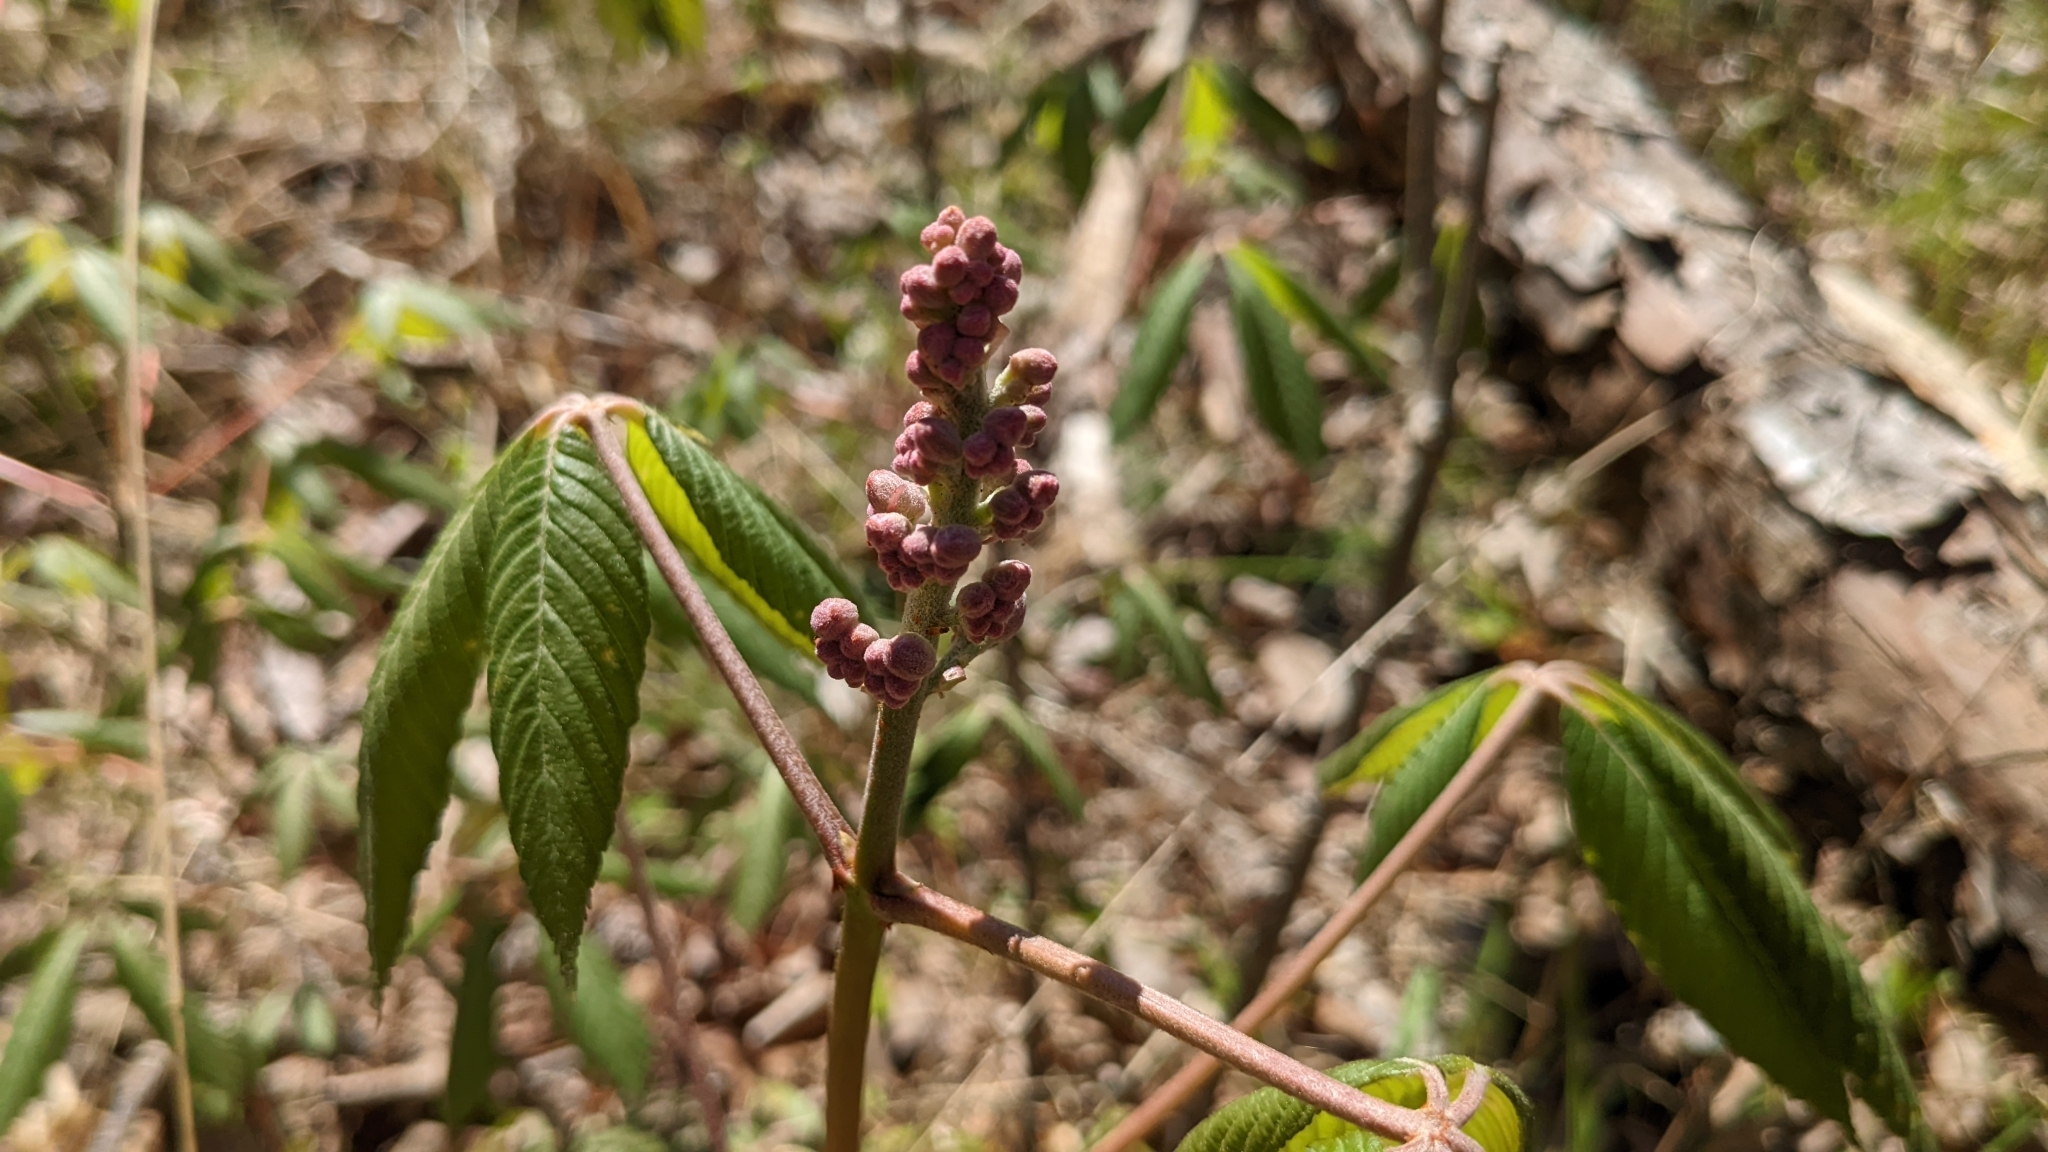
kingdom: Plantae
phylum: Tracheophyta
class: Magnoliopsida
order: Sapindales
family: Sapindaceae
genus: Aesculus
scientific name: Aesculus pavia
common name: Red buckeye
